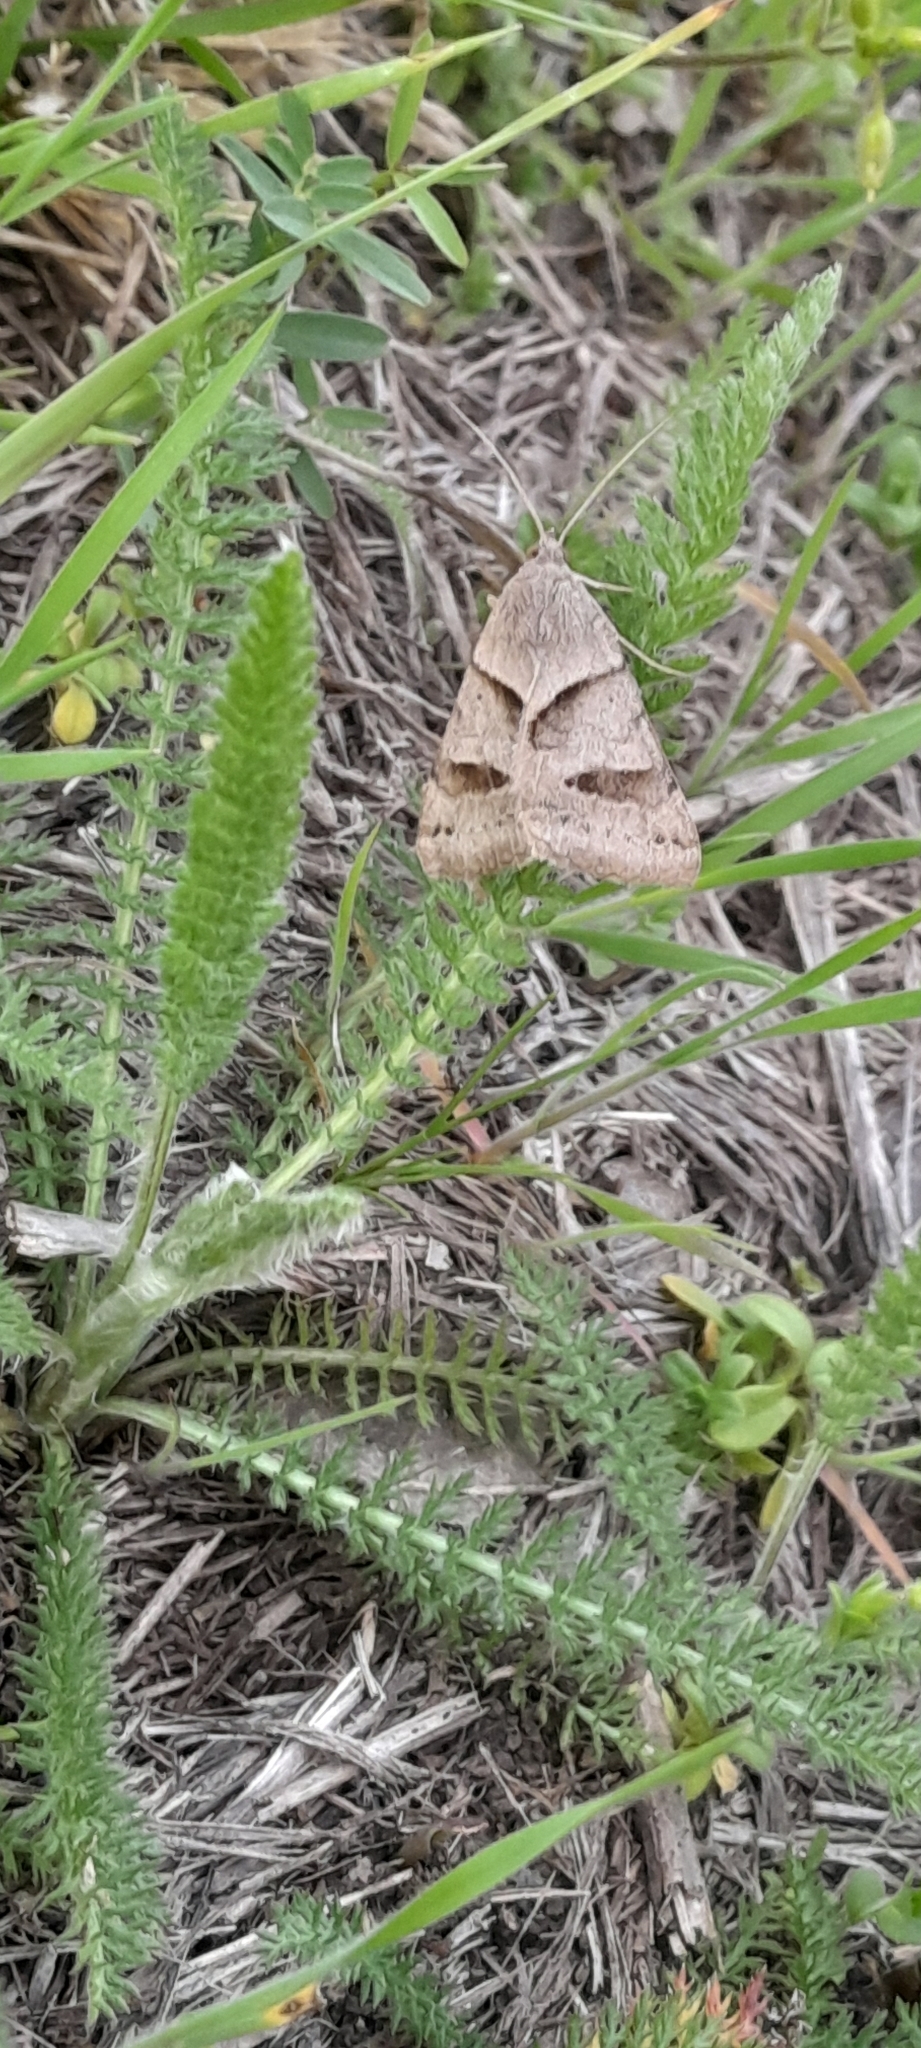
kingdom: Animalia
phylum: Arthropoda
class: Insecta
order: Lepidoptera
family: Erebidae
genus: Caenurgina
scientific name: Caenurgina erechtea
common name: Forage looper moth
